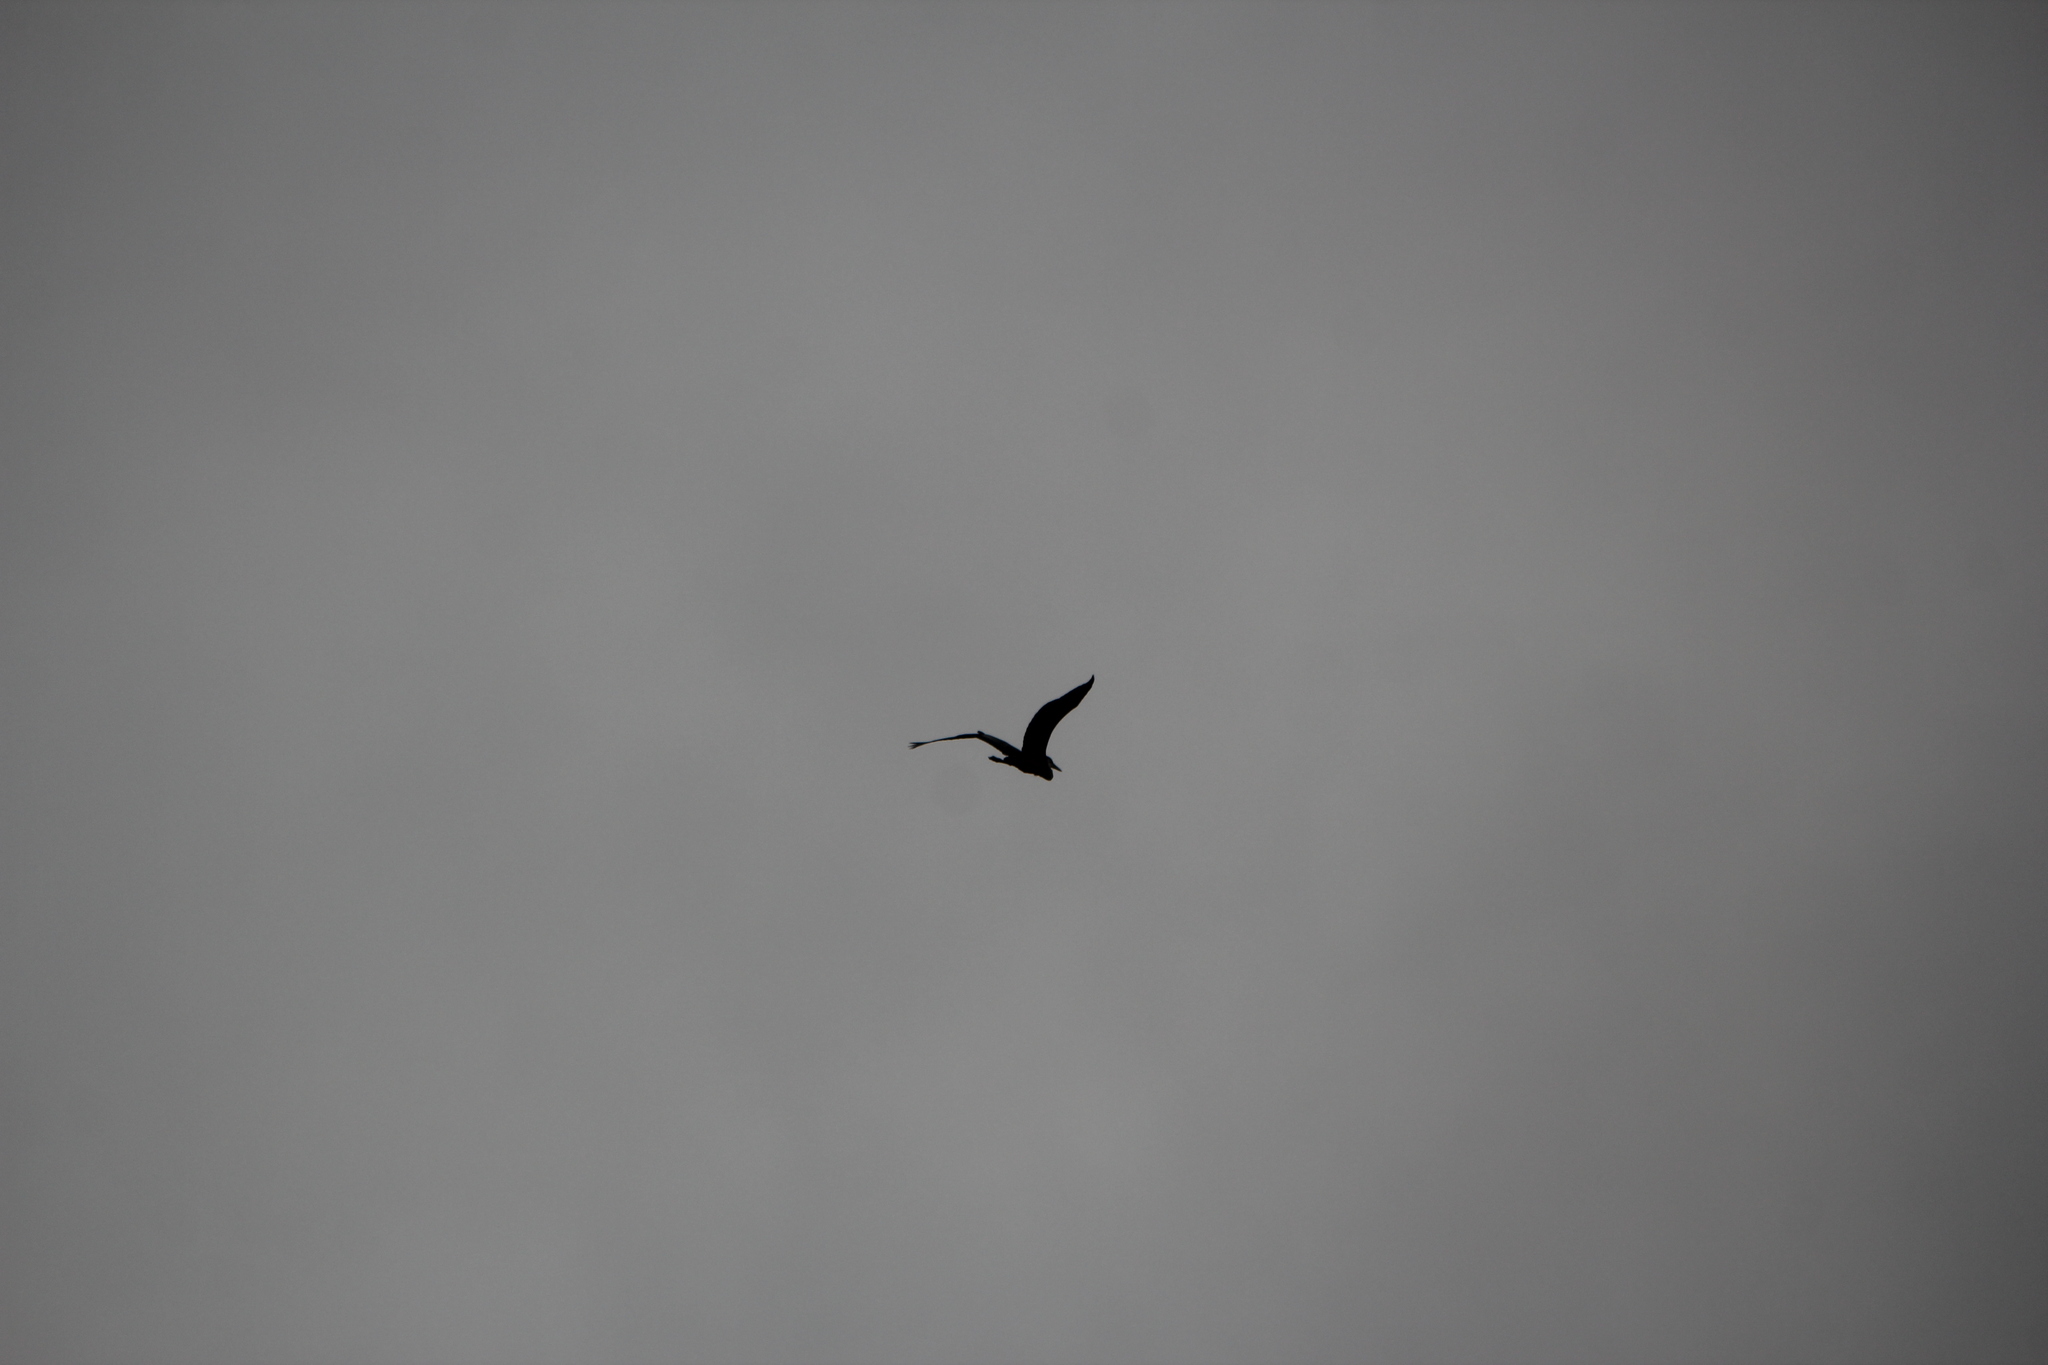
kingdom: Animalia
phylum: Chordata
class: Aves
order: Pelecaniformes
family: Ardeidae
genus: Ardea
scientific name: Ardea herodias
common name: Great blue heron
